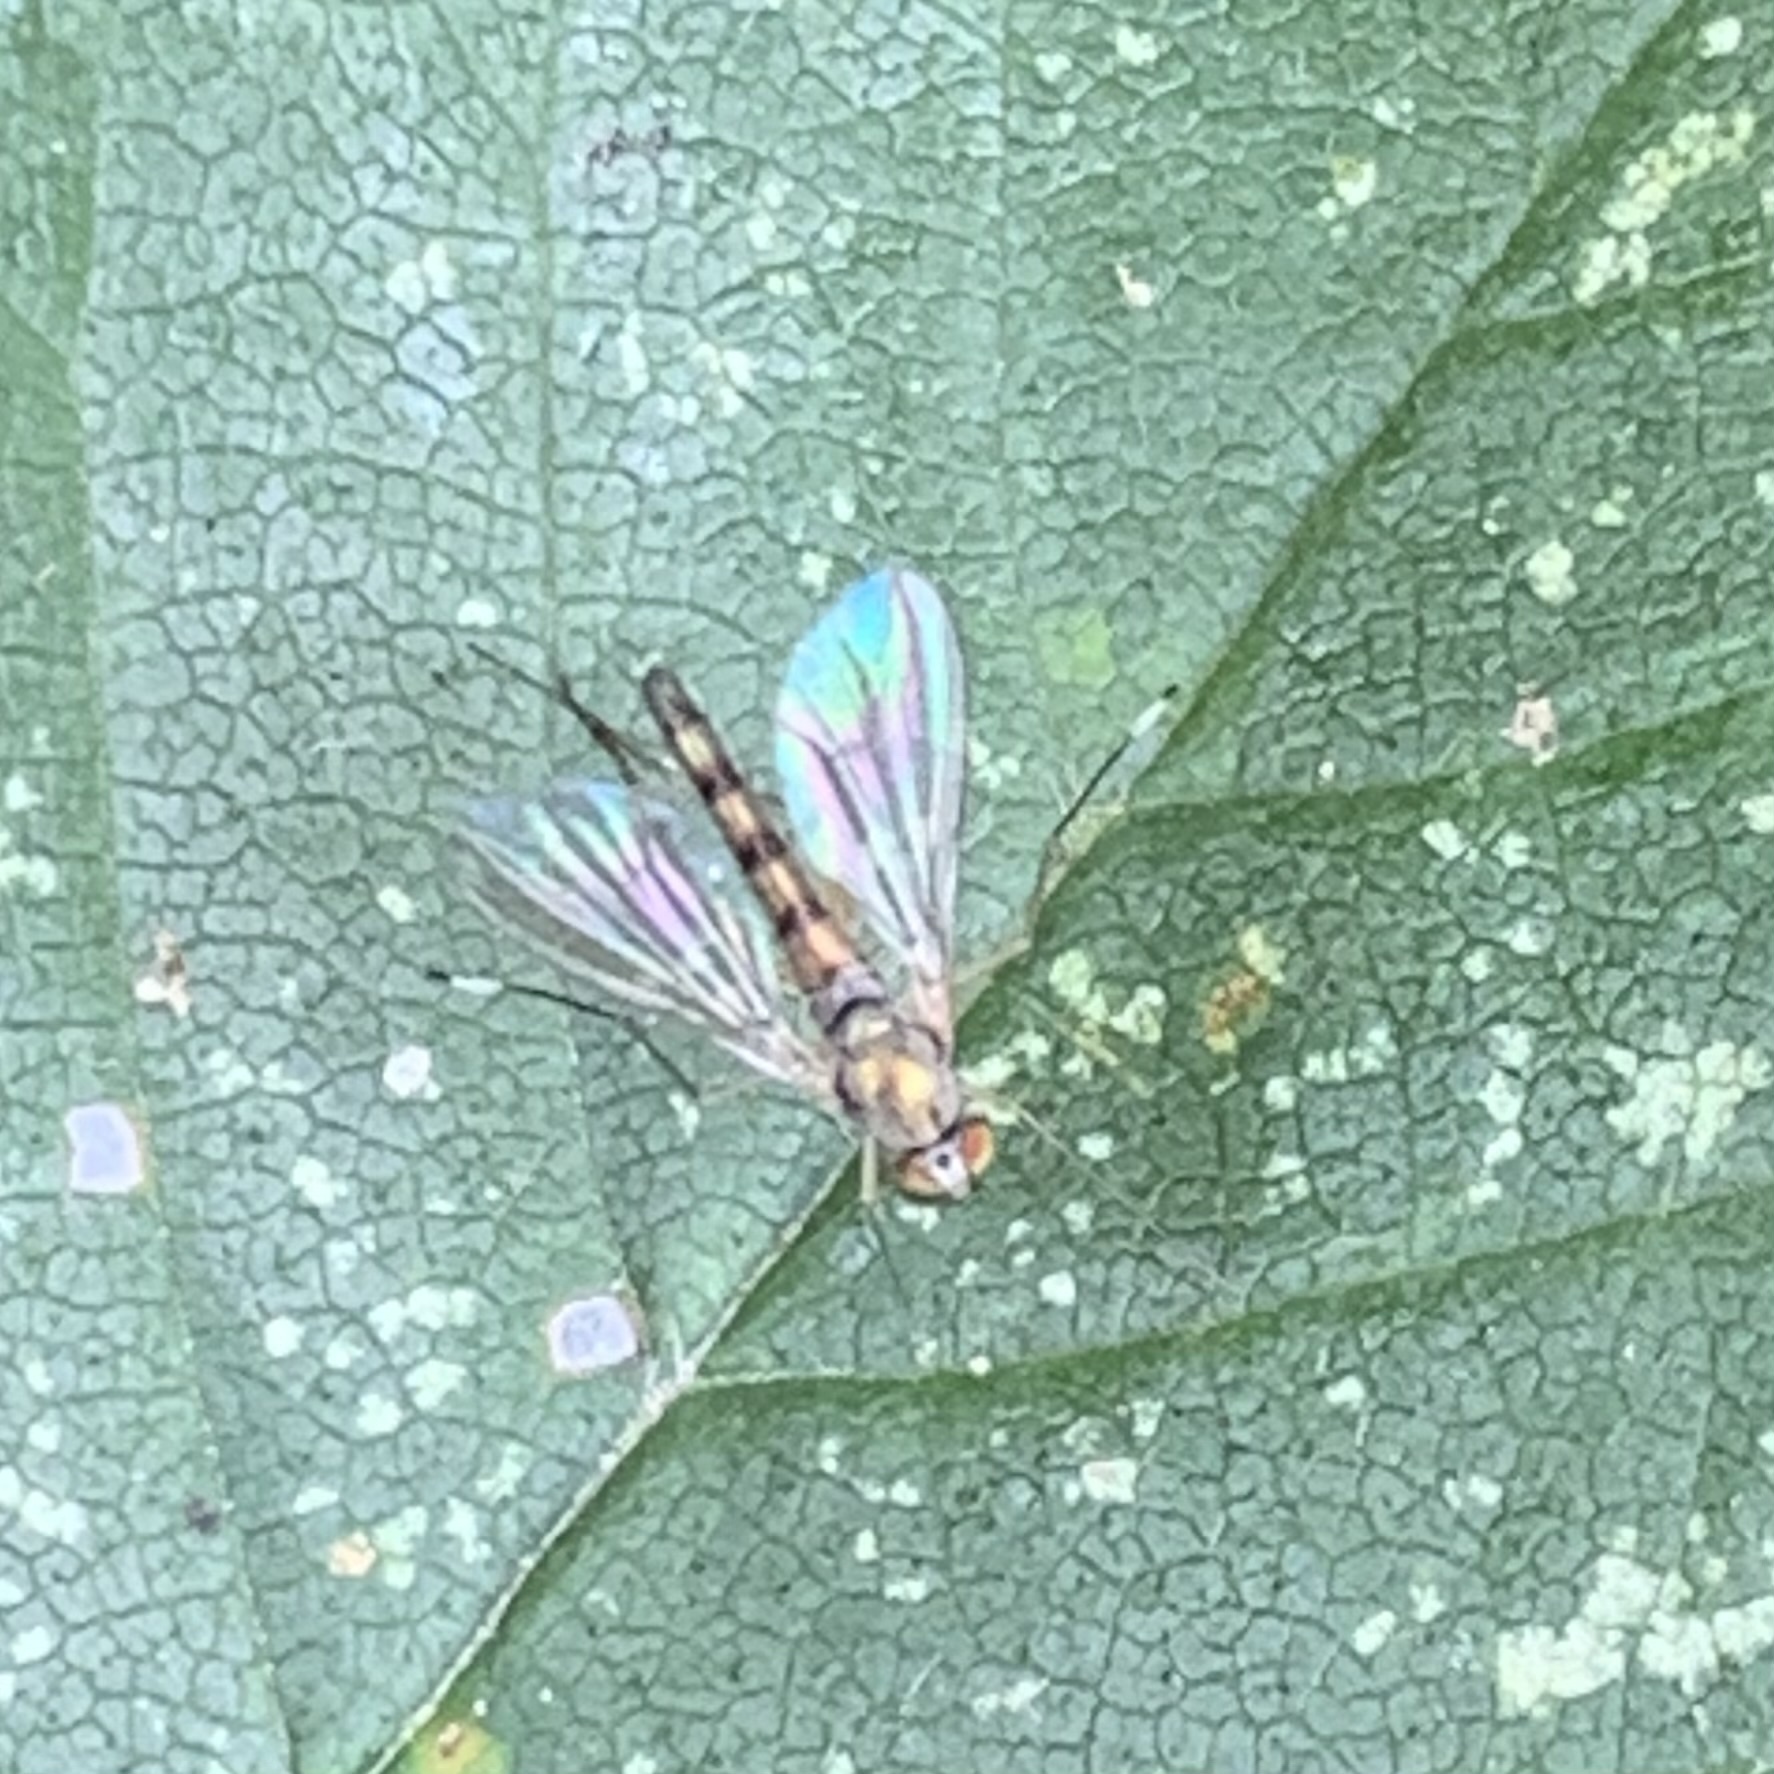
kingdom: Animalia
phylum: Arthropoda
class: Insecta
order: Diptera
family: Dolichopodidae
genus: Sciapus
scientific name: Sciapus platypterus
